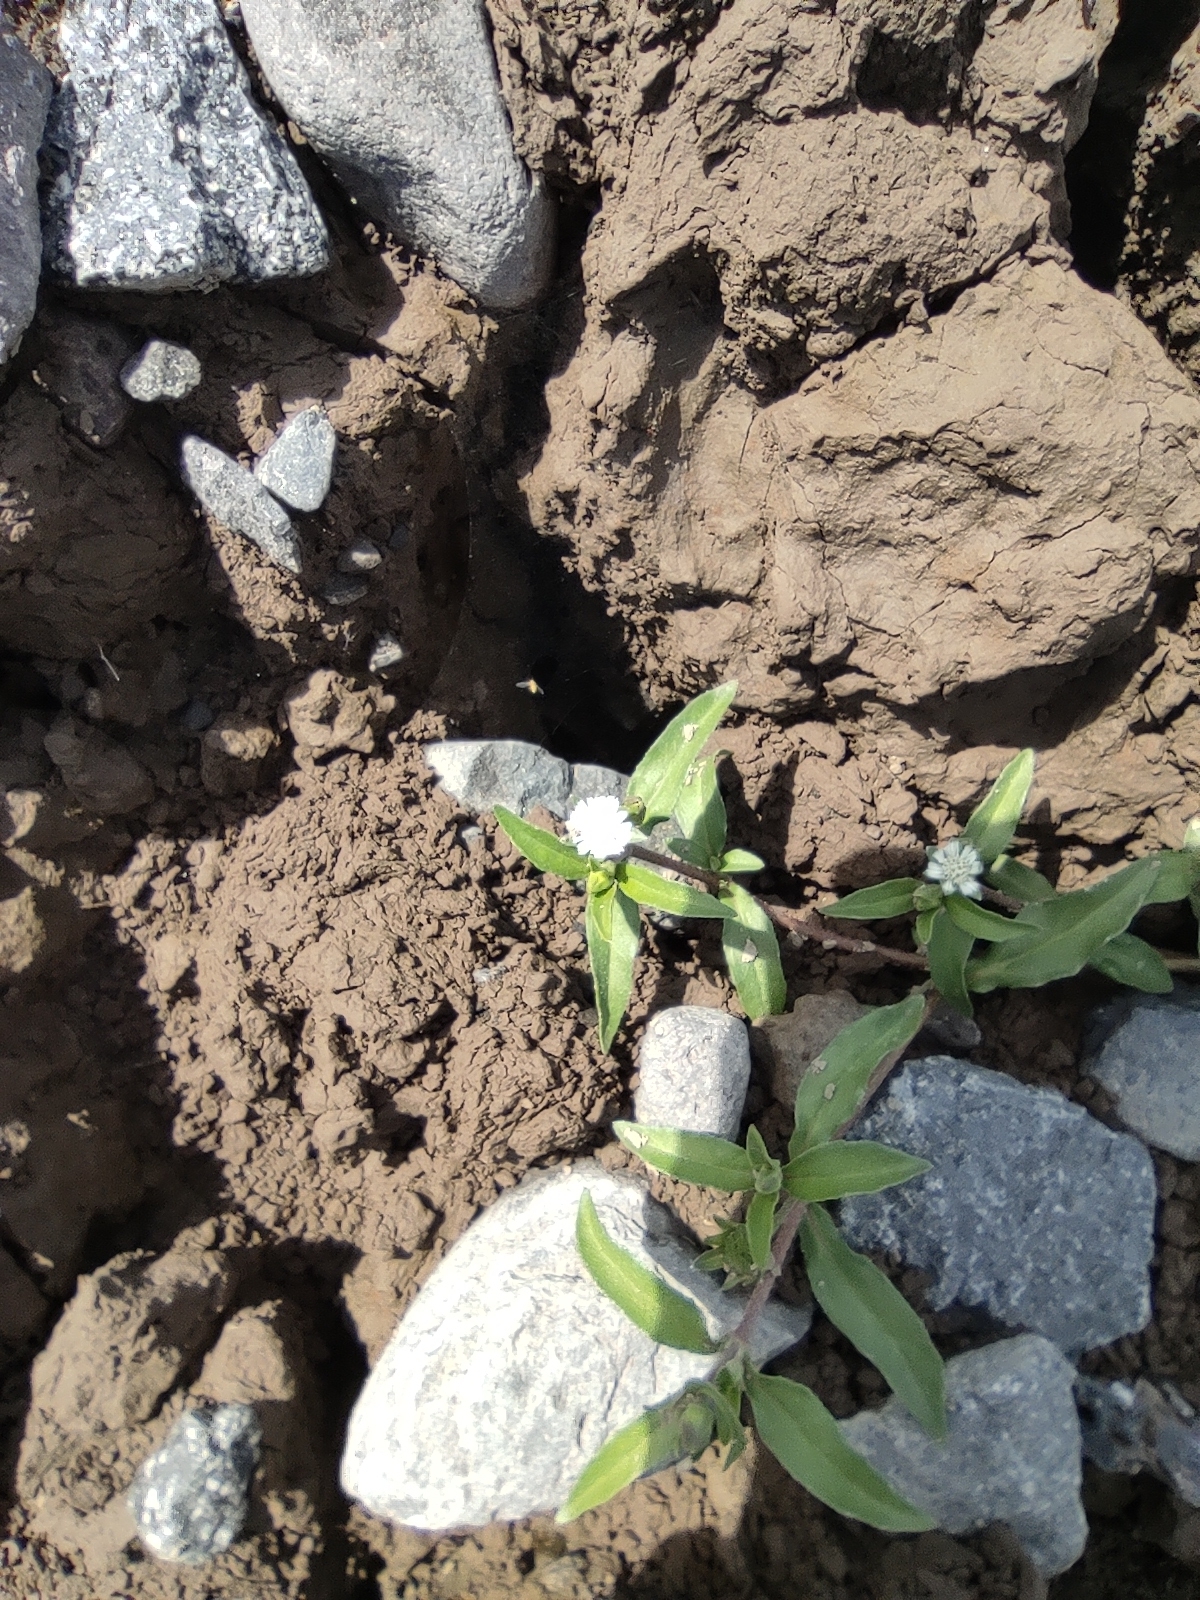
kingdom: Plantae
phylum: Tracheophyta
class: Magnoliopsida
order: Asterales
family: Asteraceae
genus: Eclipta
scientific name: Eclipta prostrata
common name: False daisy
